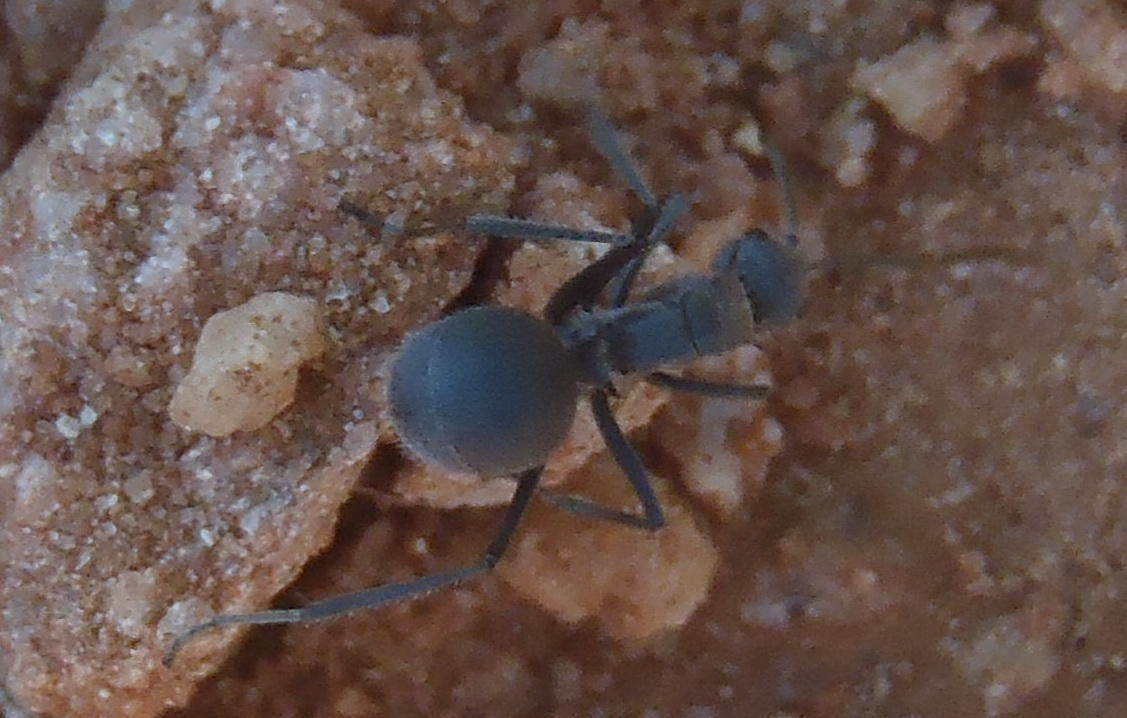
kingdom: Animalia
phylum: Arthropoda
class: Insecta
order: Hymenoptera
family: Formicidae
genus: Polyrhachis
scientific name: Polyrhachis schistacea
